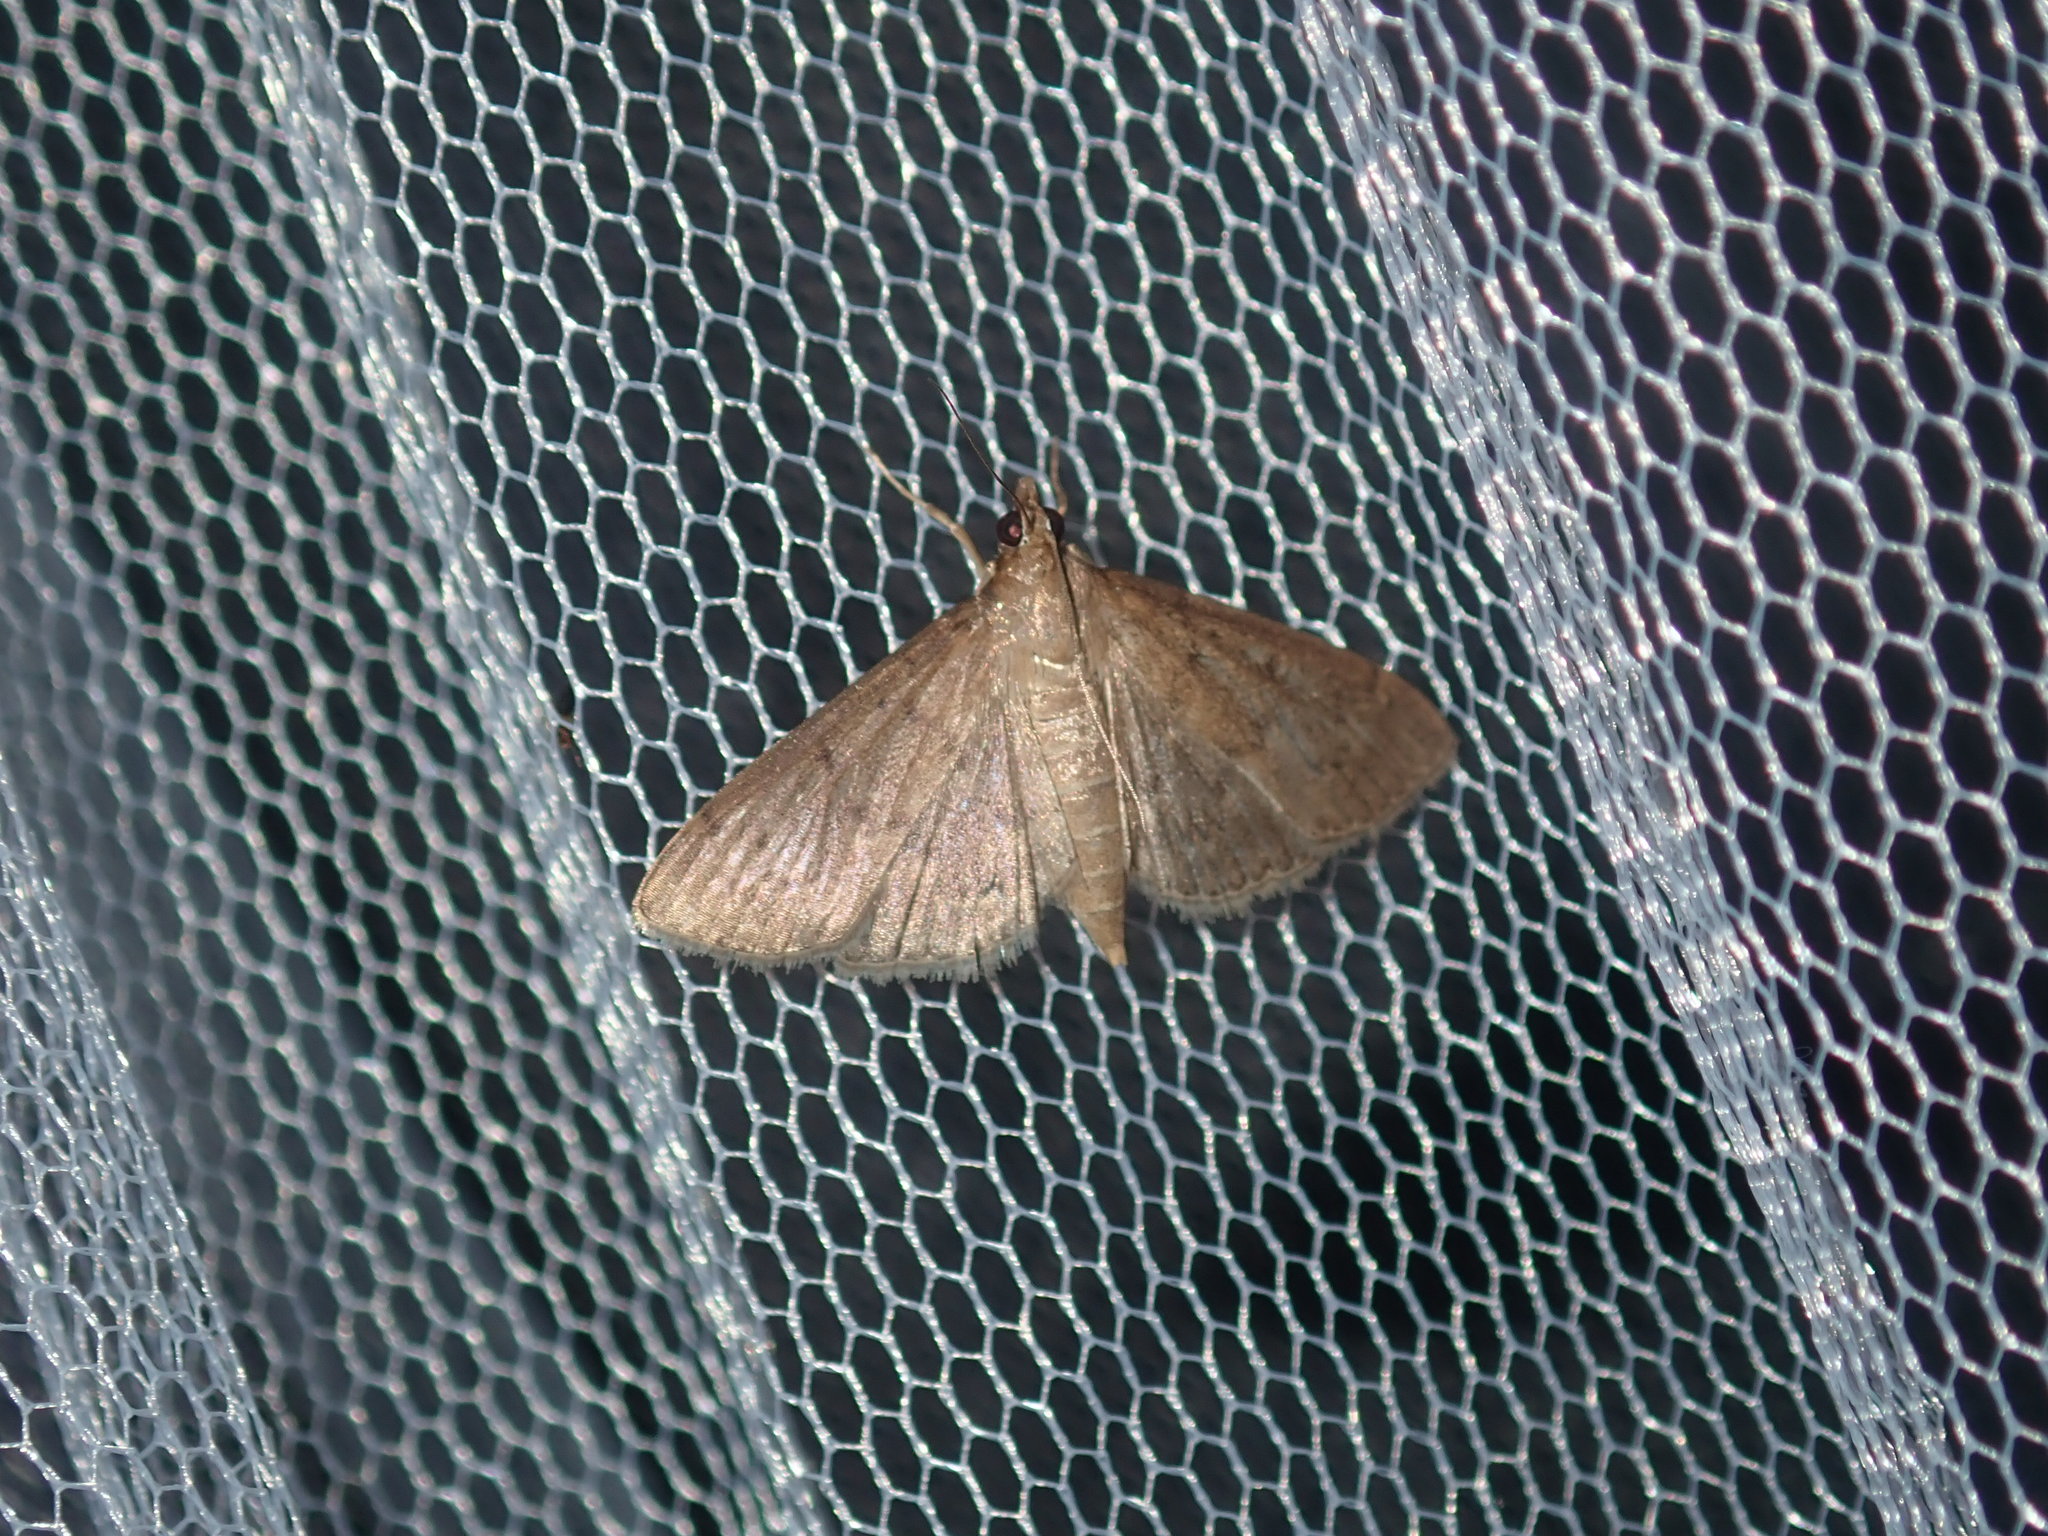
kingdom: Animalia
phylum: Arthropoda
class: Insecta
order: Lepidoptera
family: Crambidae
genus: Herpetogramma
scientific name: Herpetogramma licarsisalis
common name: Grass webworm
